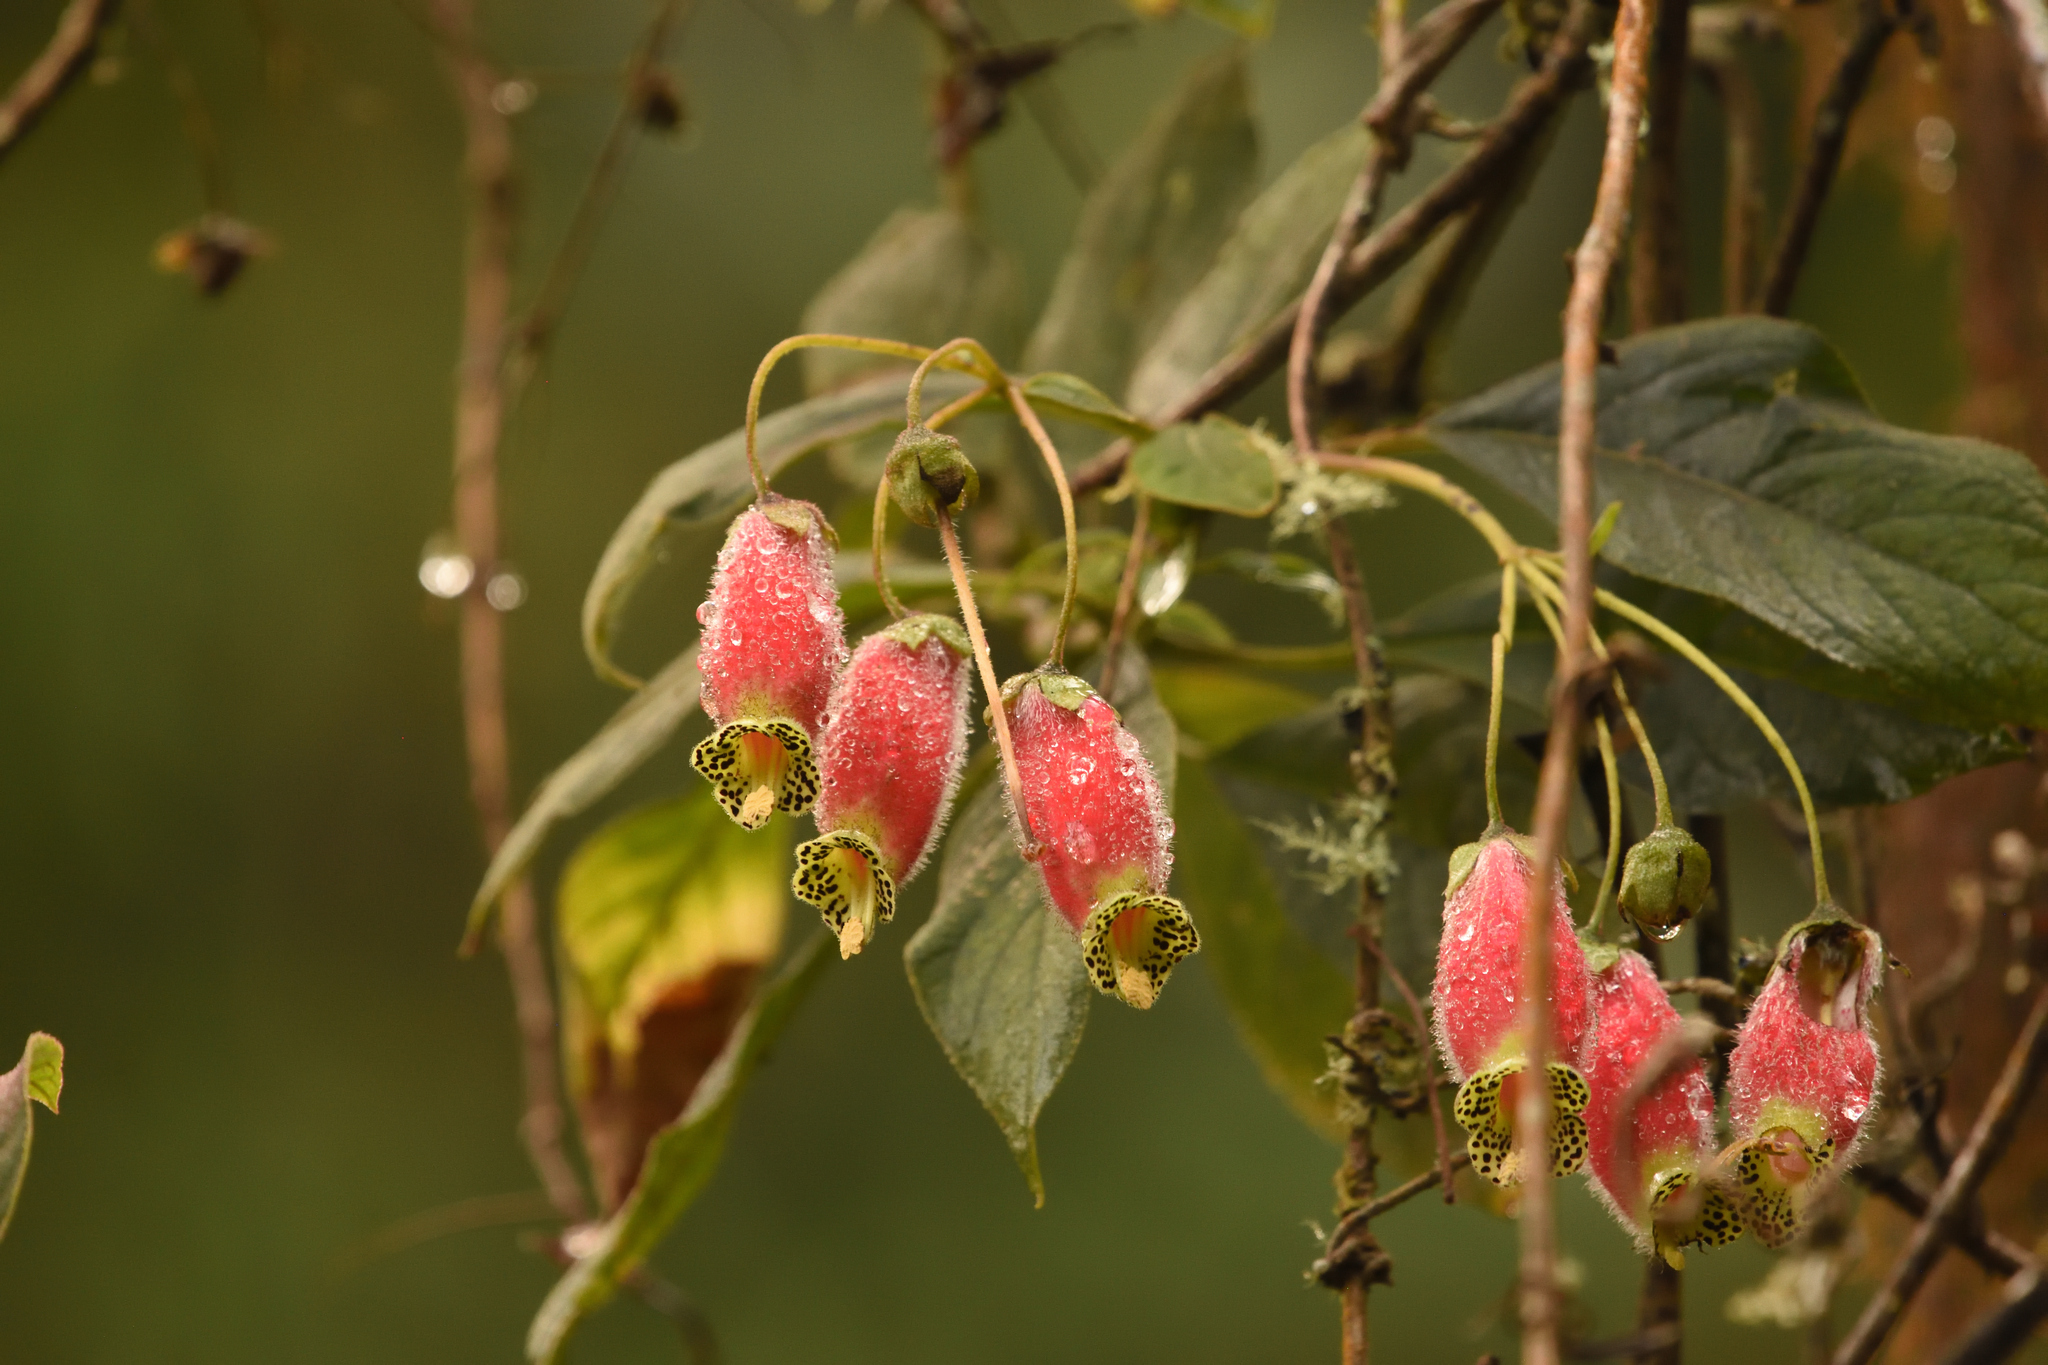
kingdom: Plantae
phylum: Tracheophyta
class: Magnoliopsida
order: Lamiales
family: Gesneriaceae
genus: Kohleria
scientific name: Kohleria affinis
